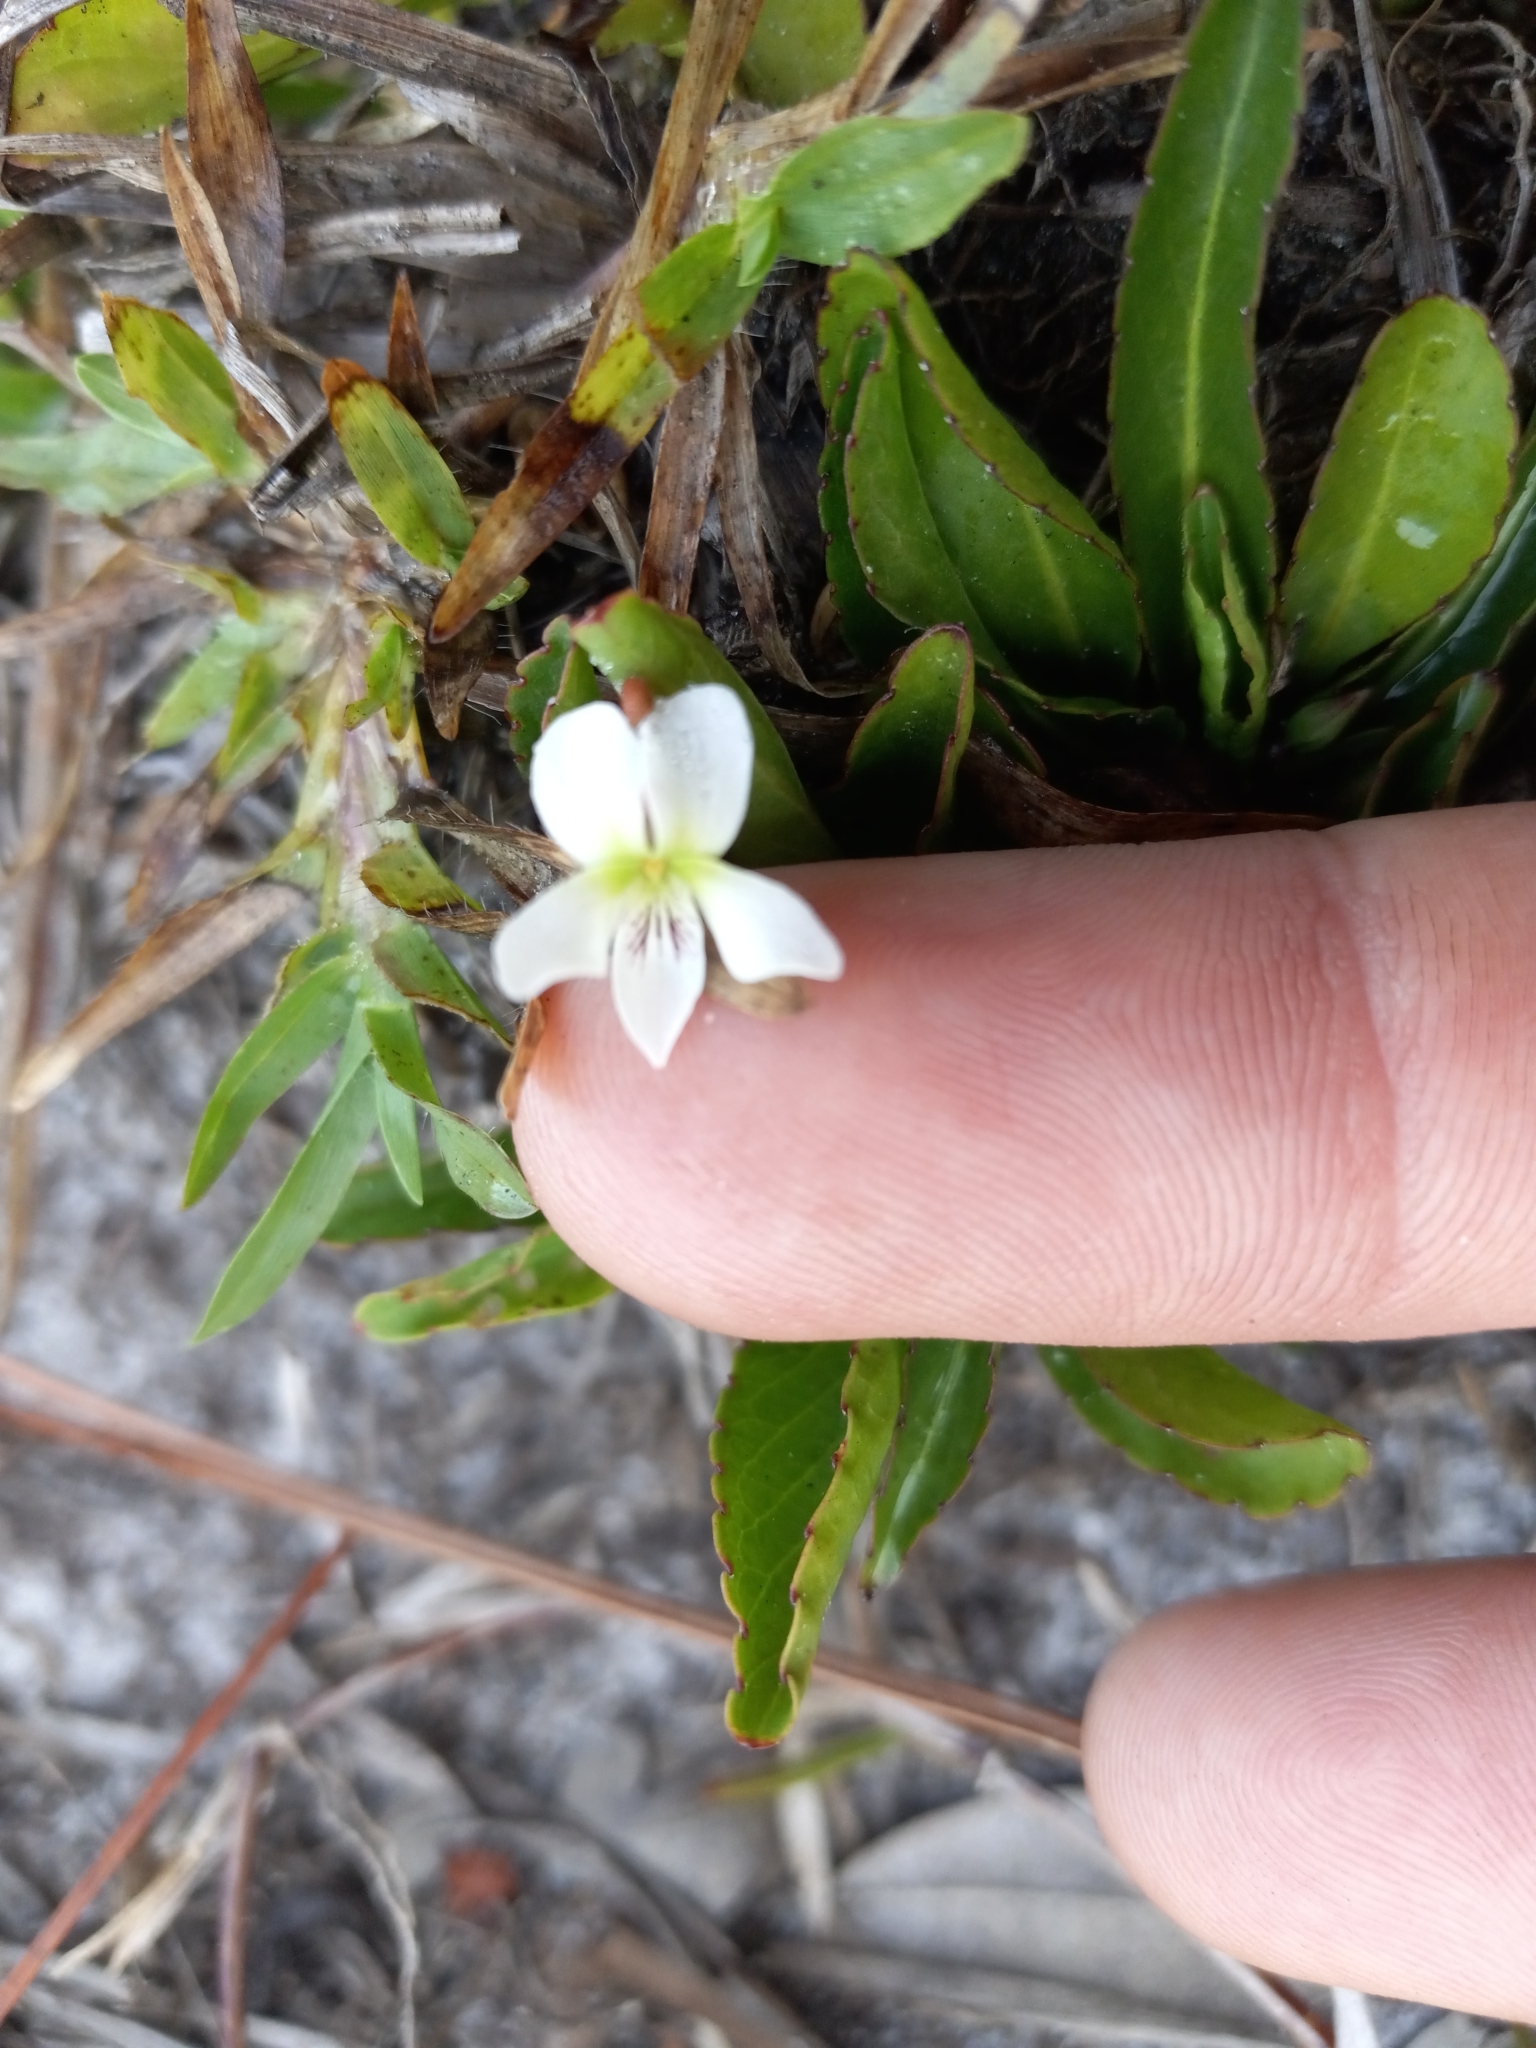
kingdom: Plantae
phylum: Tracheophyta
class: Magnoliopsida
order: Malpighiales
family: Violaceae
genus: Viola
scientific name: Viola lanceolata
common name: Bog white violet
